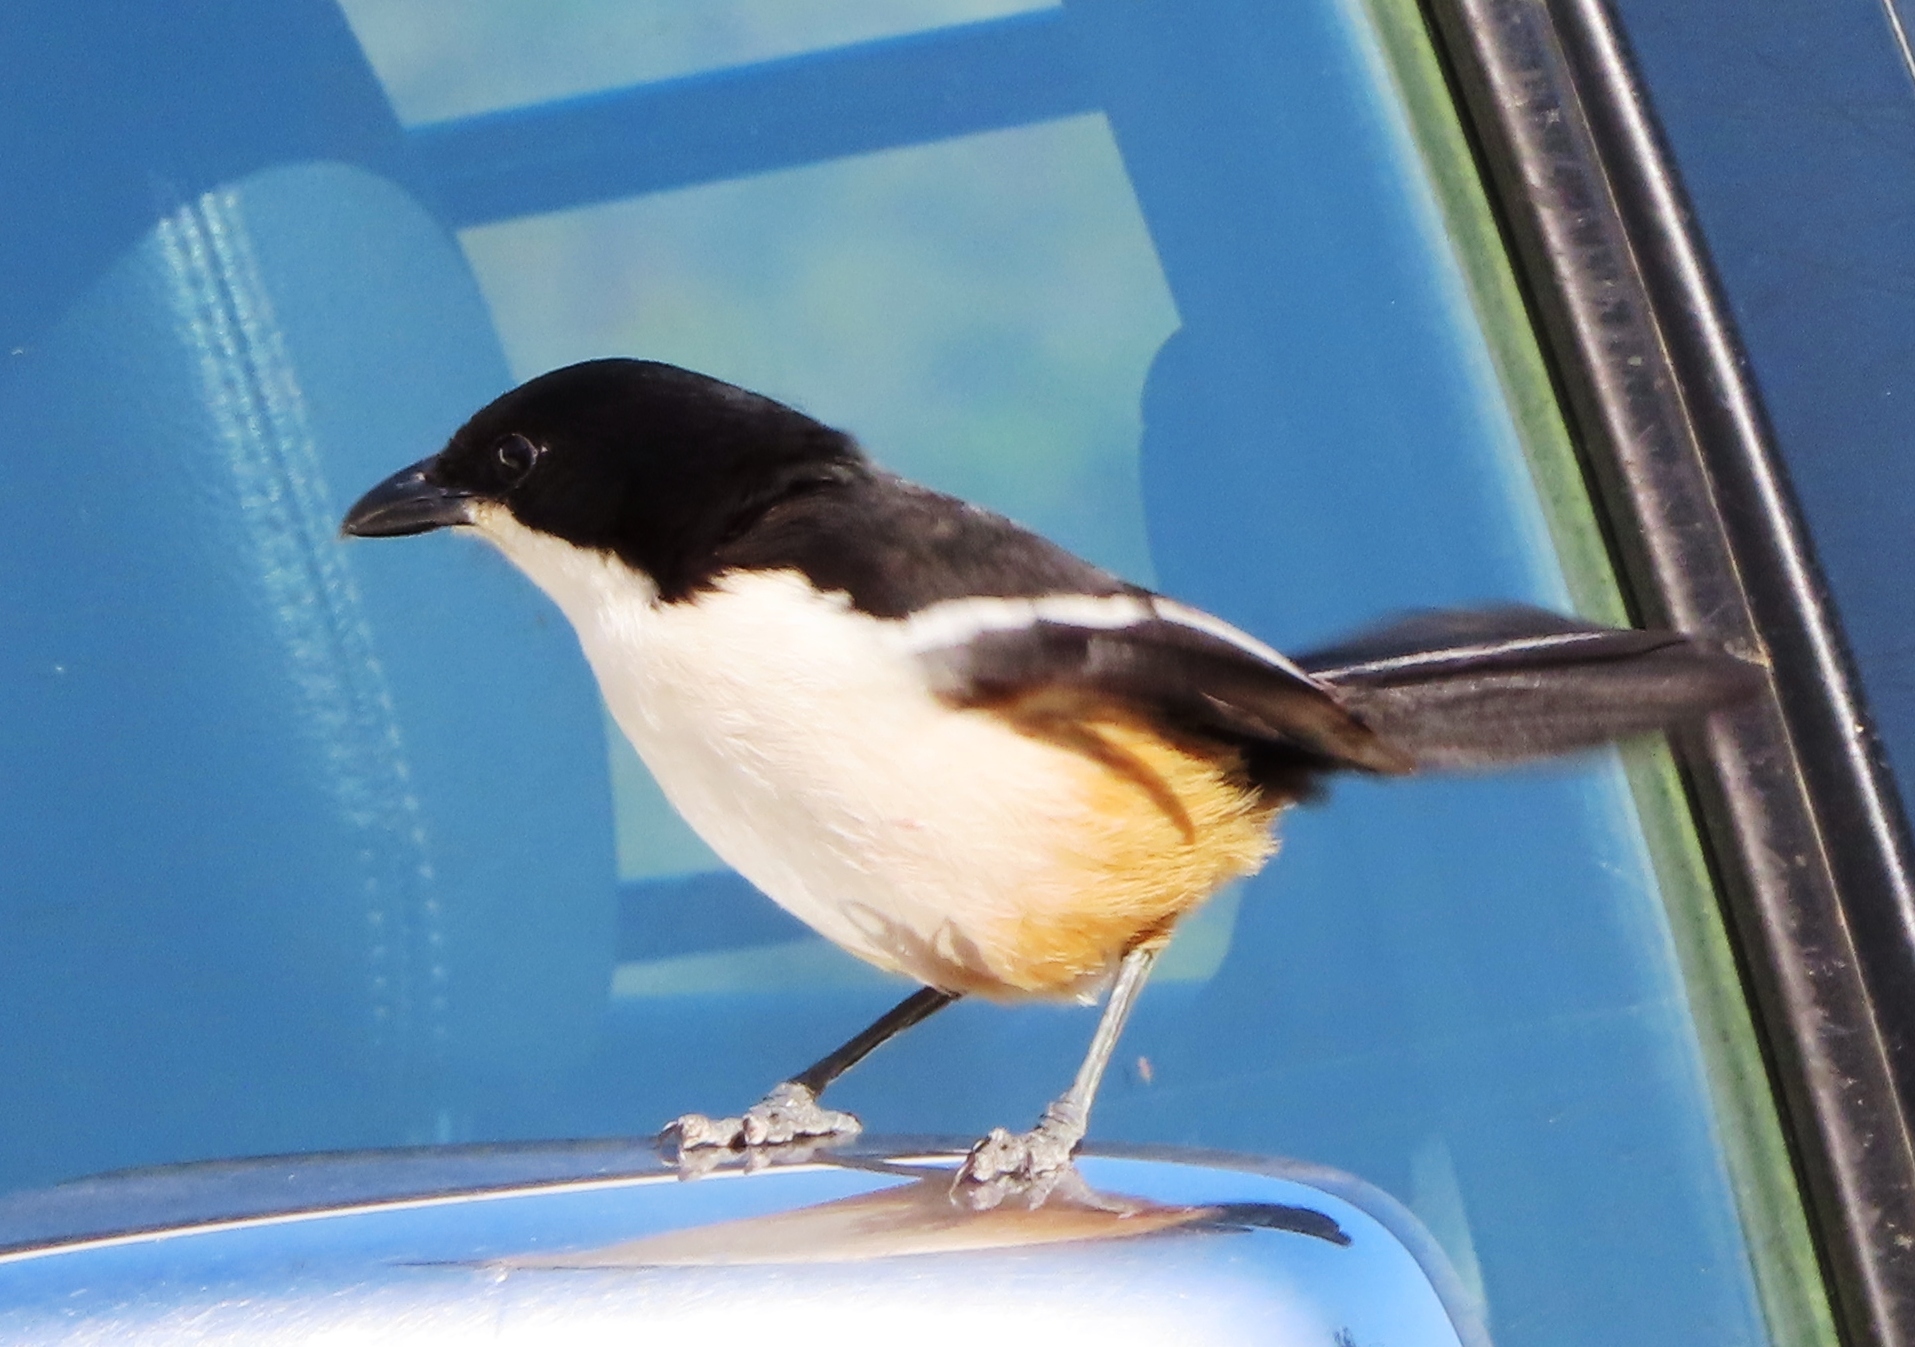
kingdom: Animalia
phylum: Chordata
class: Aves
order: Passeriformes
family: Malaconotidae
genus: Laniarius
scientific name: Laniarius ferrugineus
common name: Southern boubou
